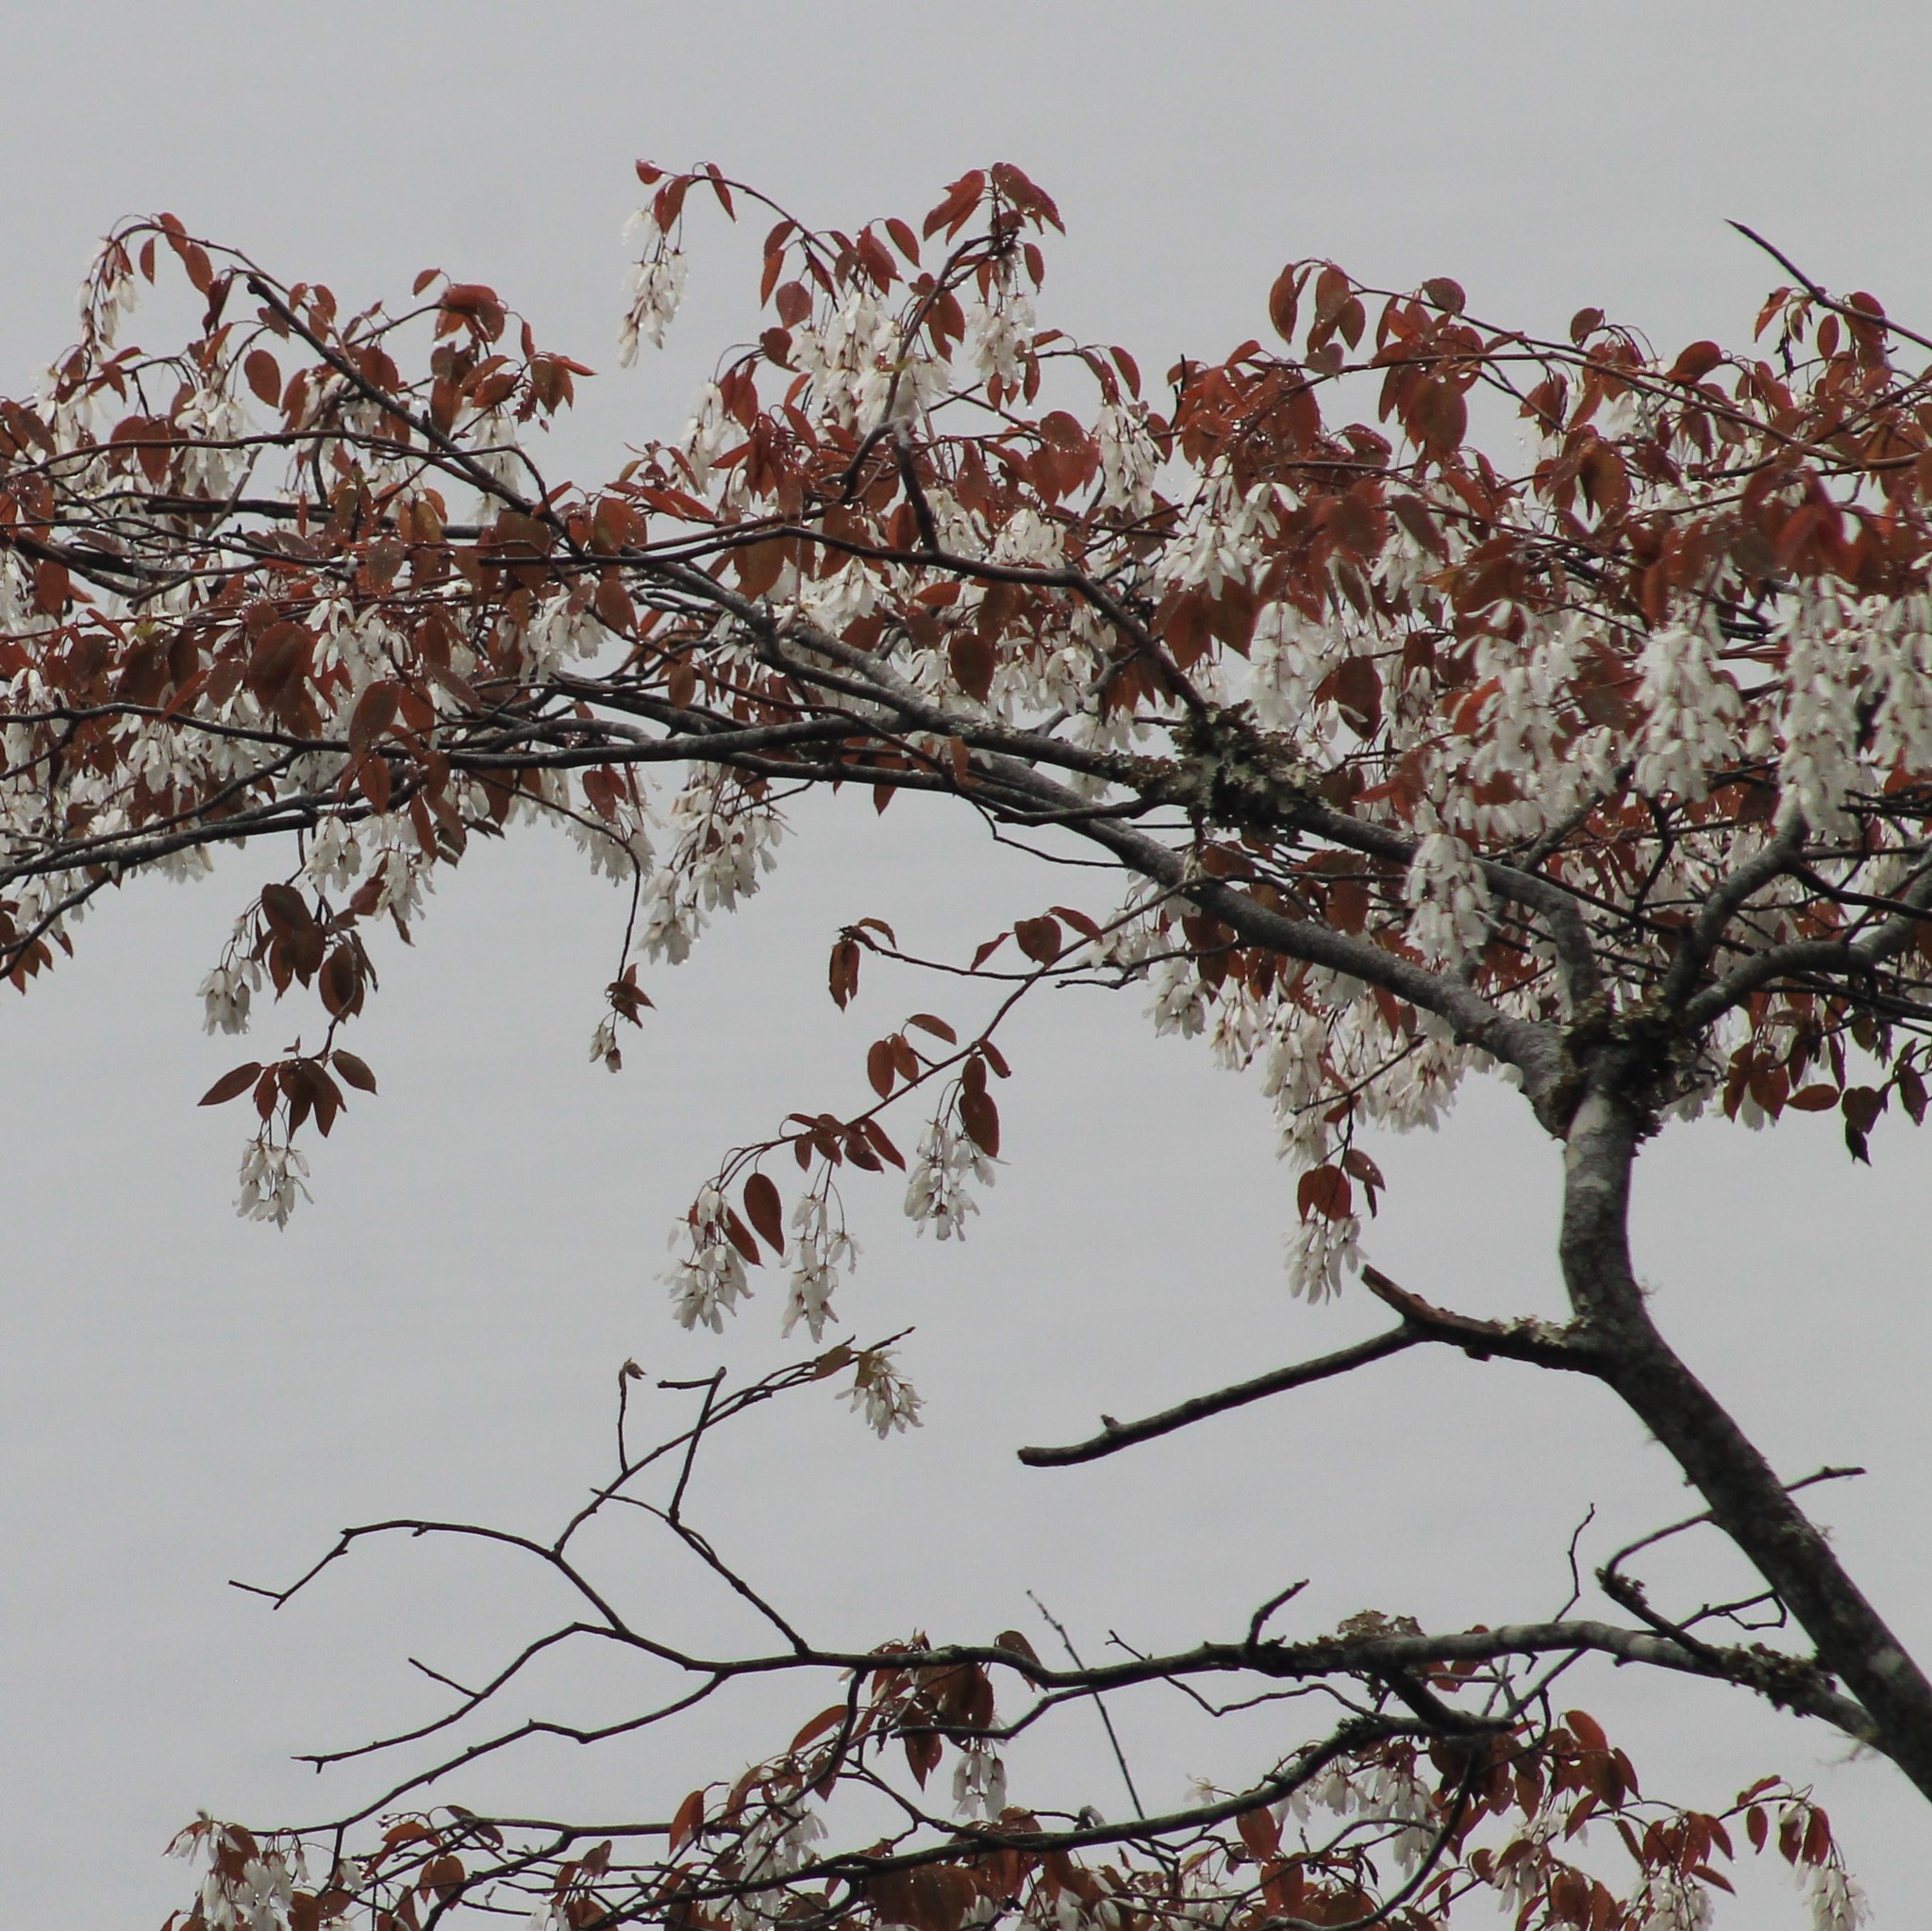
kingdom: Plantae
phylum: Tracheophyta
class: Magnoliopsida
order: Rosales
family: Rosaceae
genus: Amelanchier
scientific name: Amelanchier laevis
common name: Allegheny serviceberry
